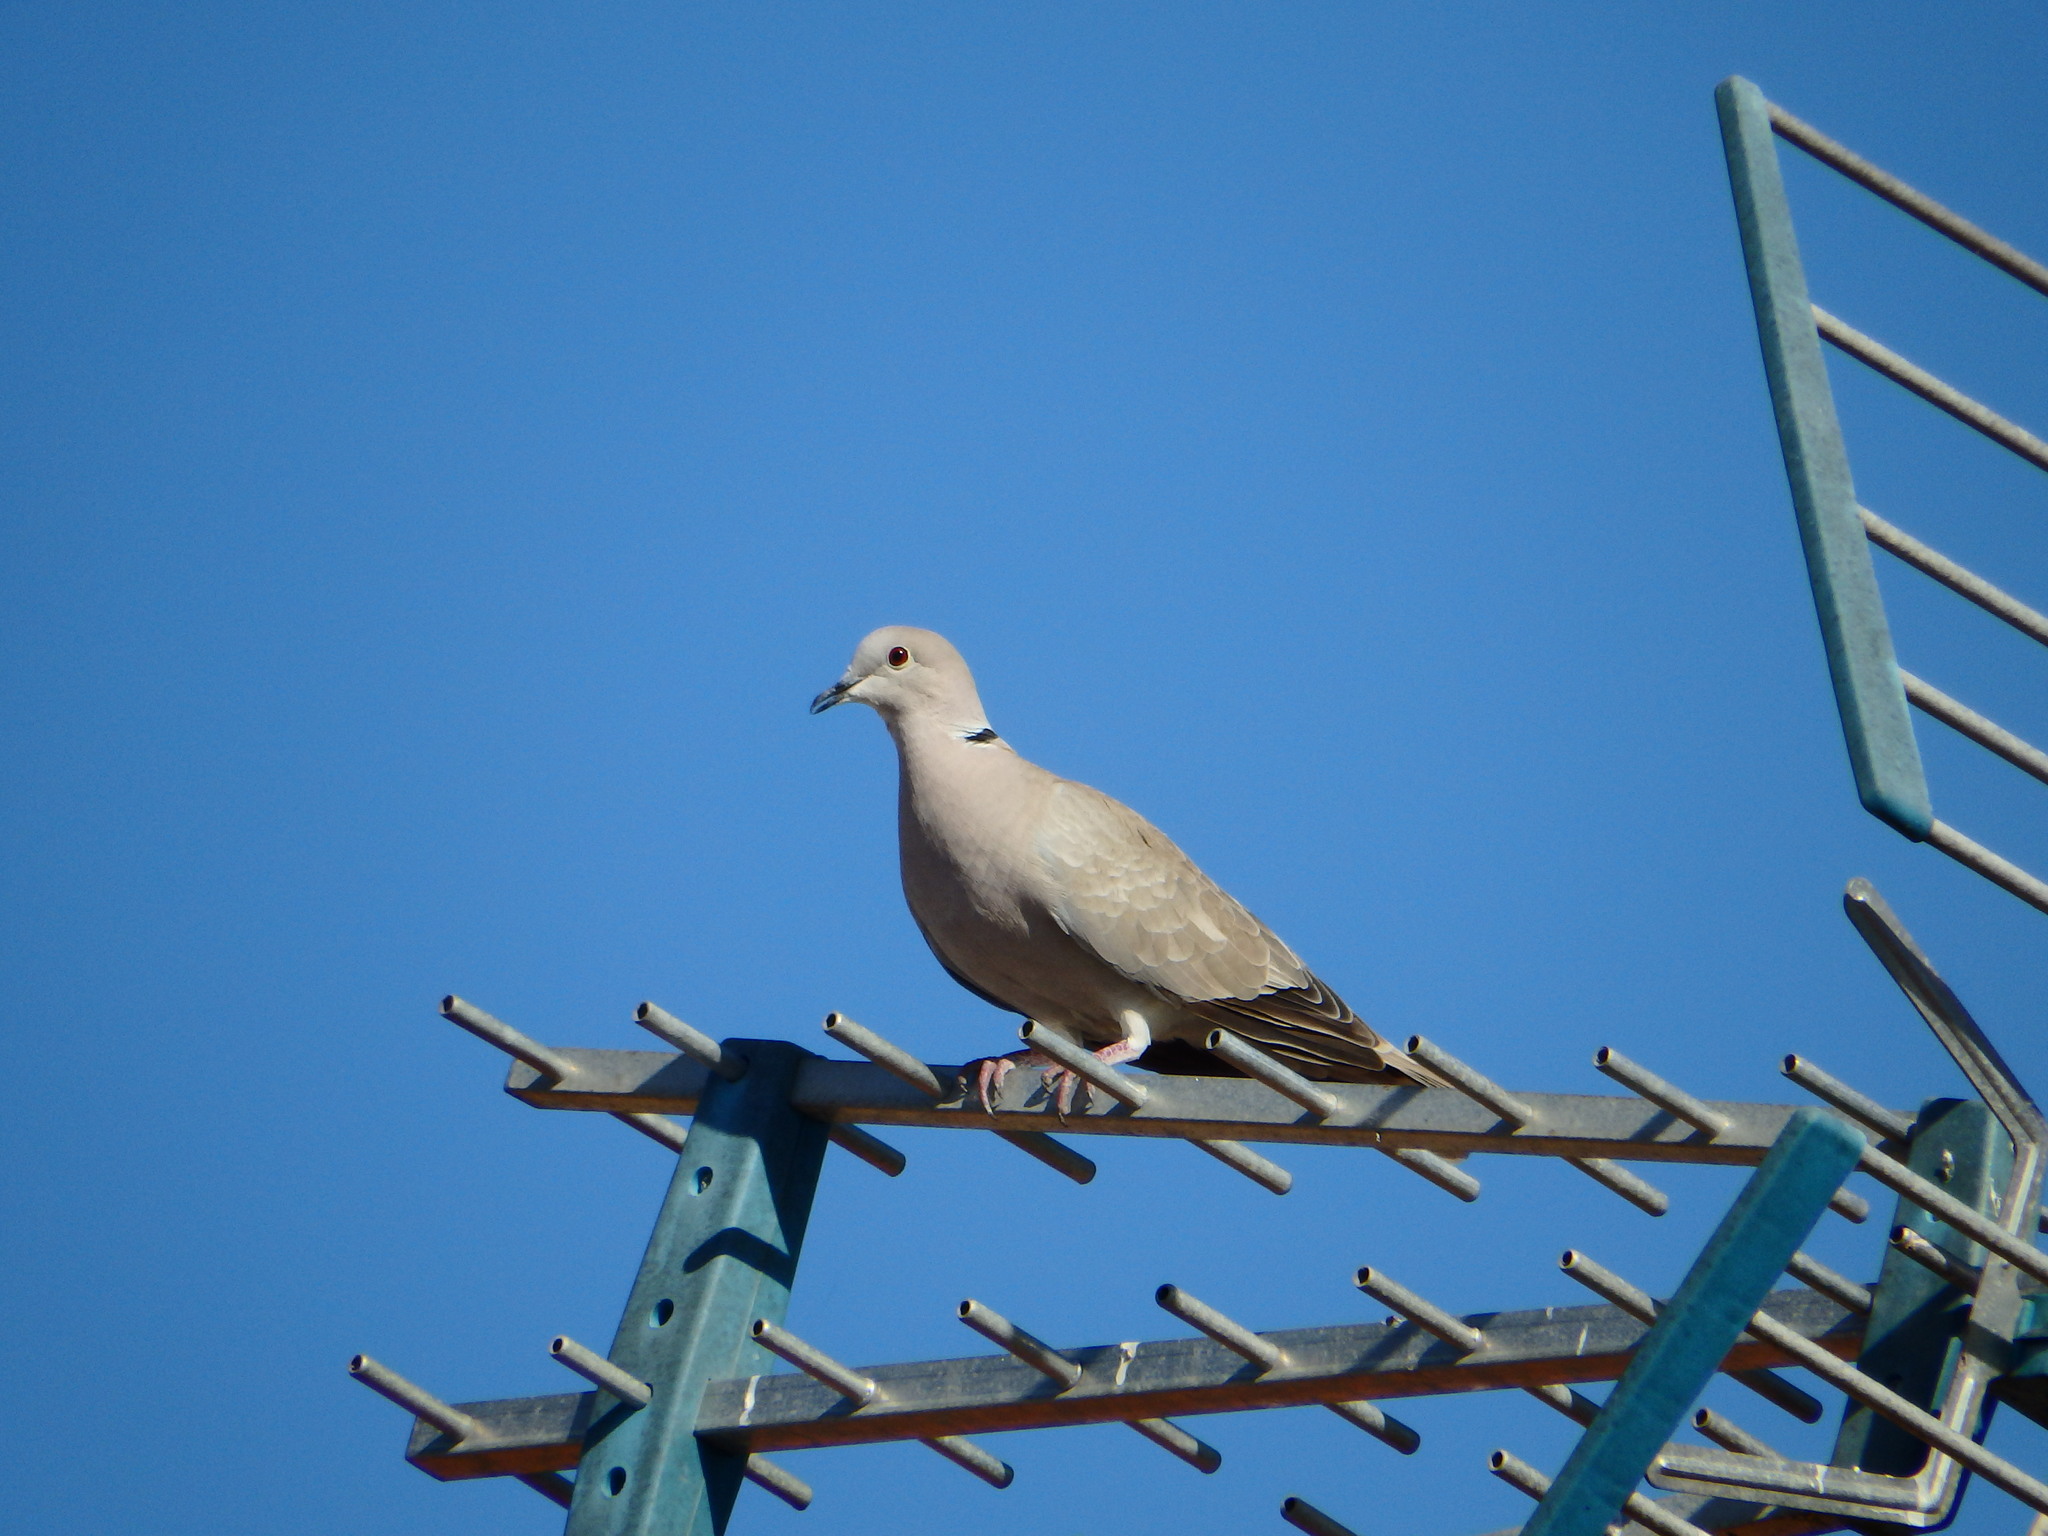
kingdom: Animalia
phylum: Chordata
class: Aves
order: Columbiformes
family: Columbidae
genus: Streptopelia
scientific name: Streptopelia decaocto
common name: Eurasian collared dove
